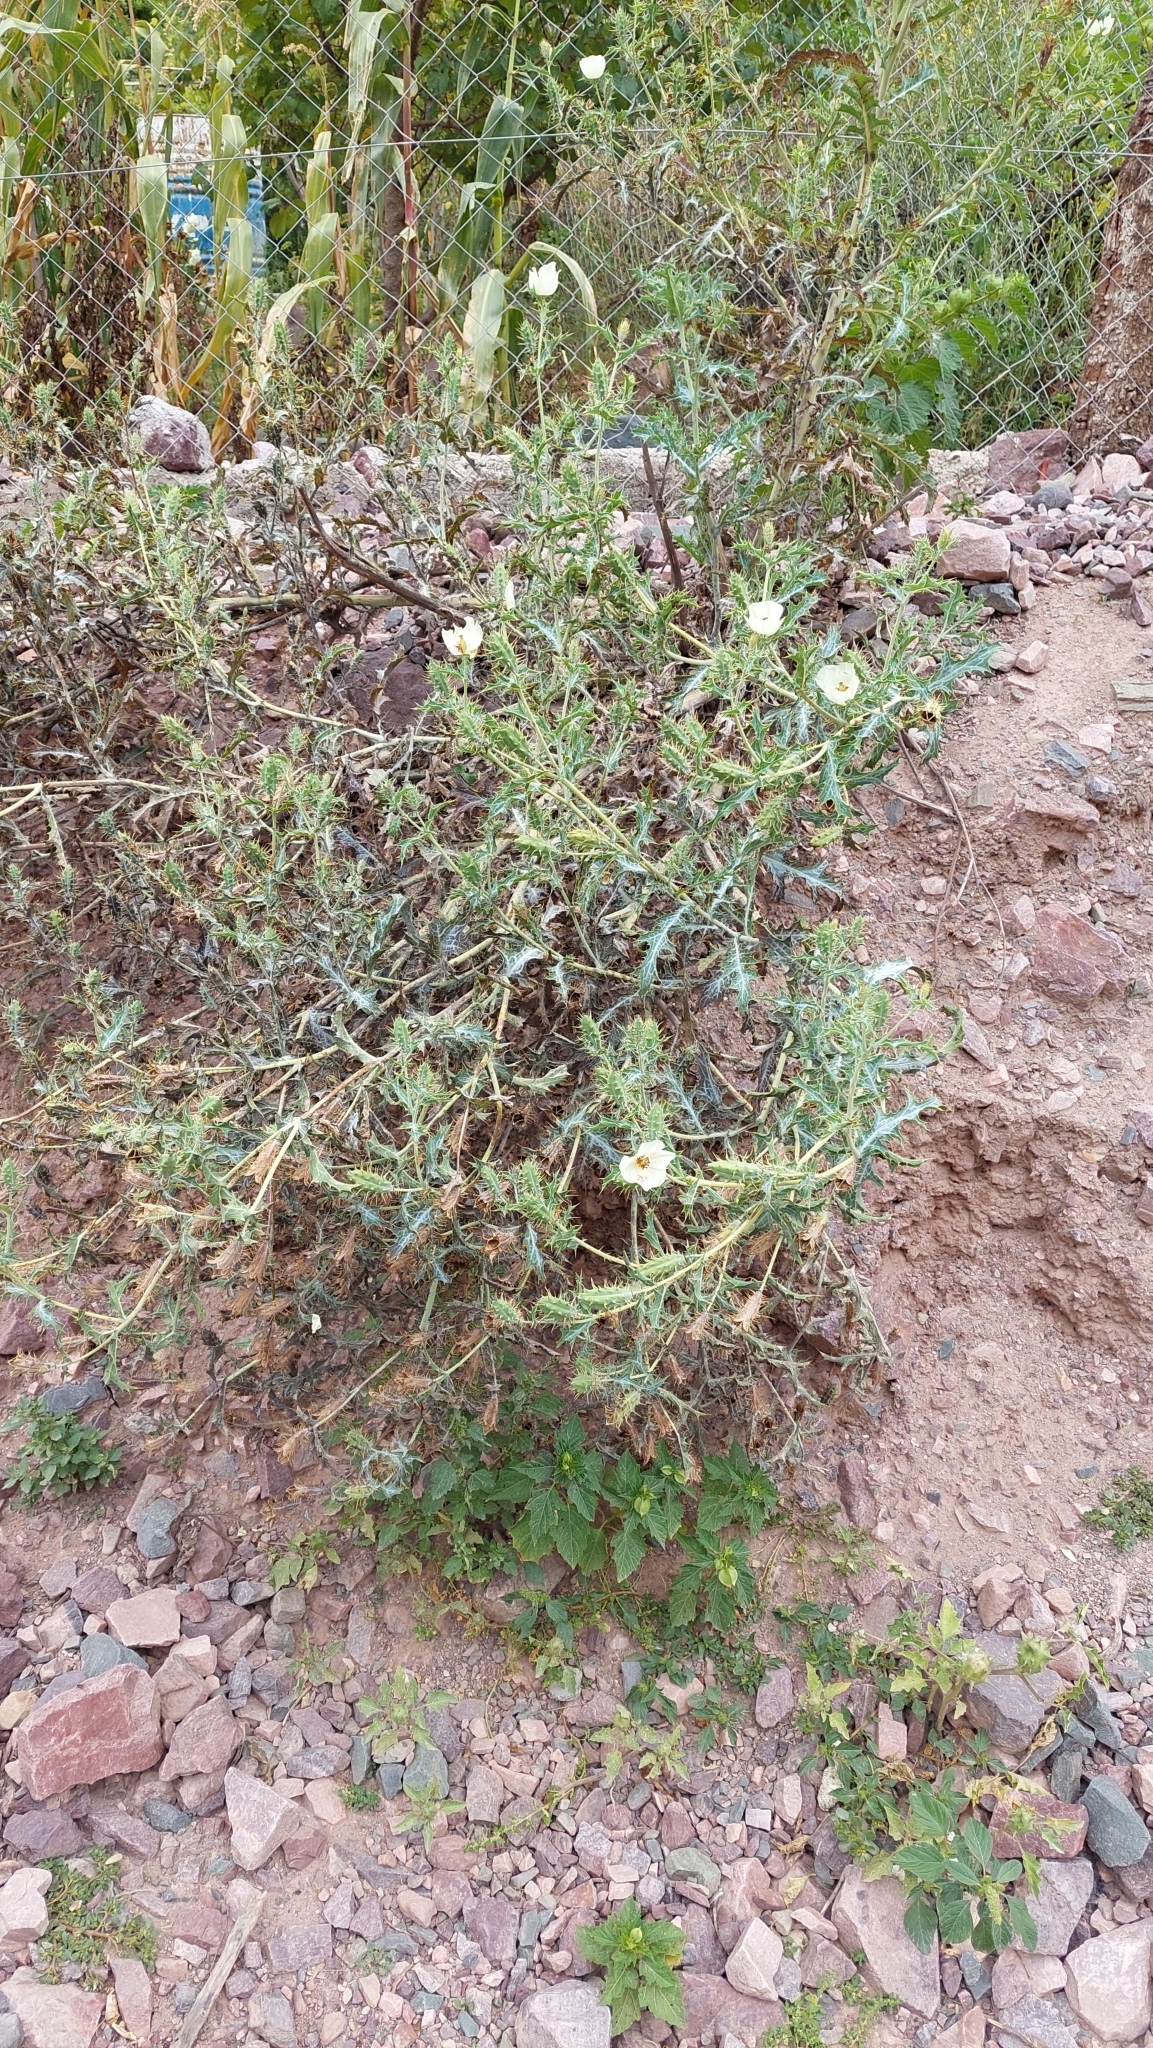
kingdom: Plantae
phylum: Tracheophyta
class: Magnoliopsida
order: Ranunculales
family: Papaveraceae
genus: Argemone
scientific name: Argemone subfusiformis
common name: American-poppy
